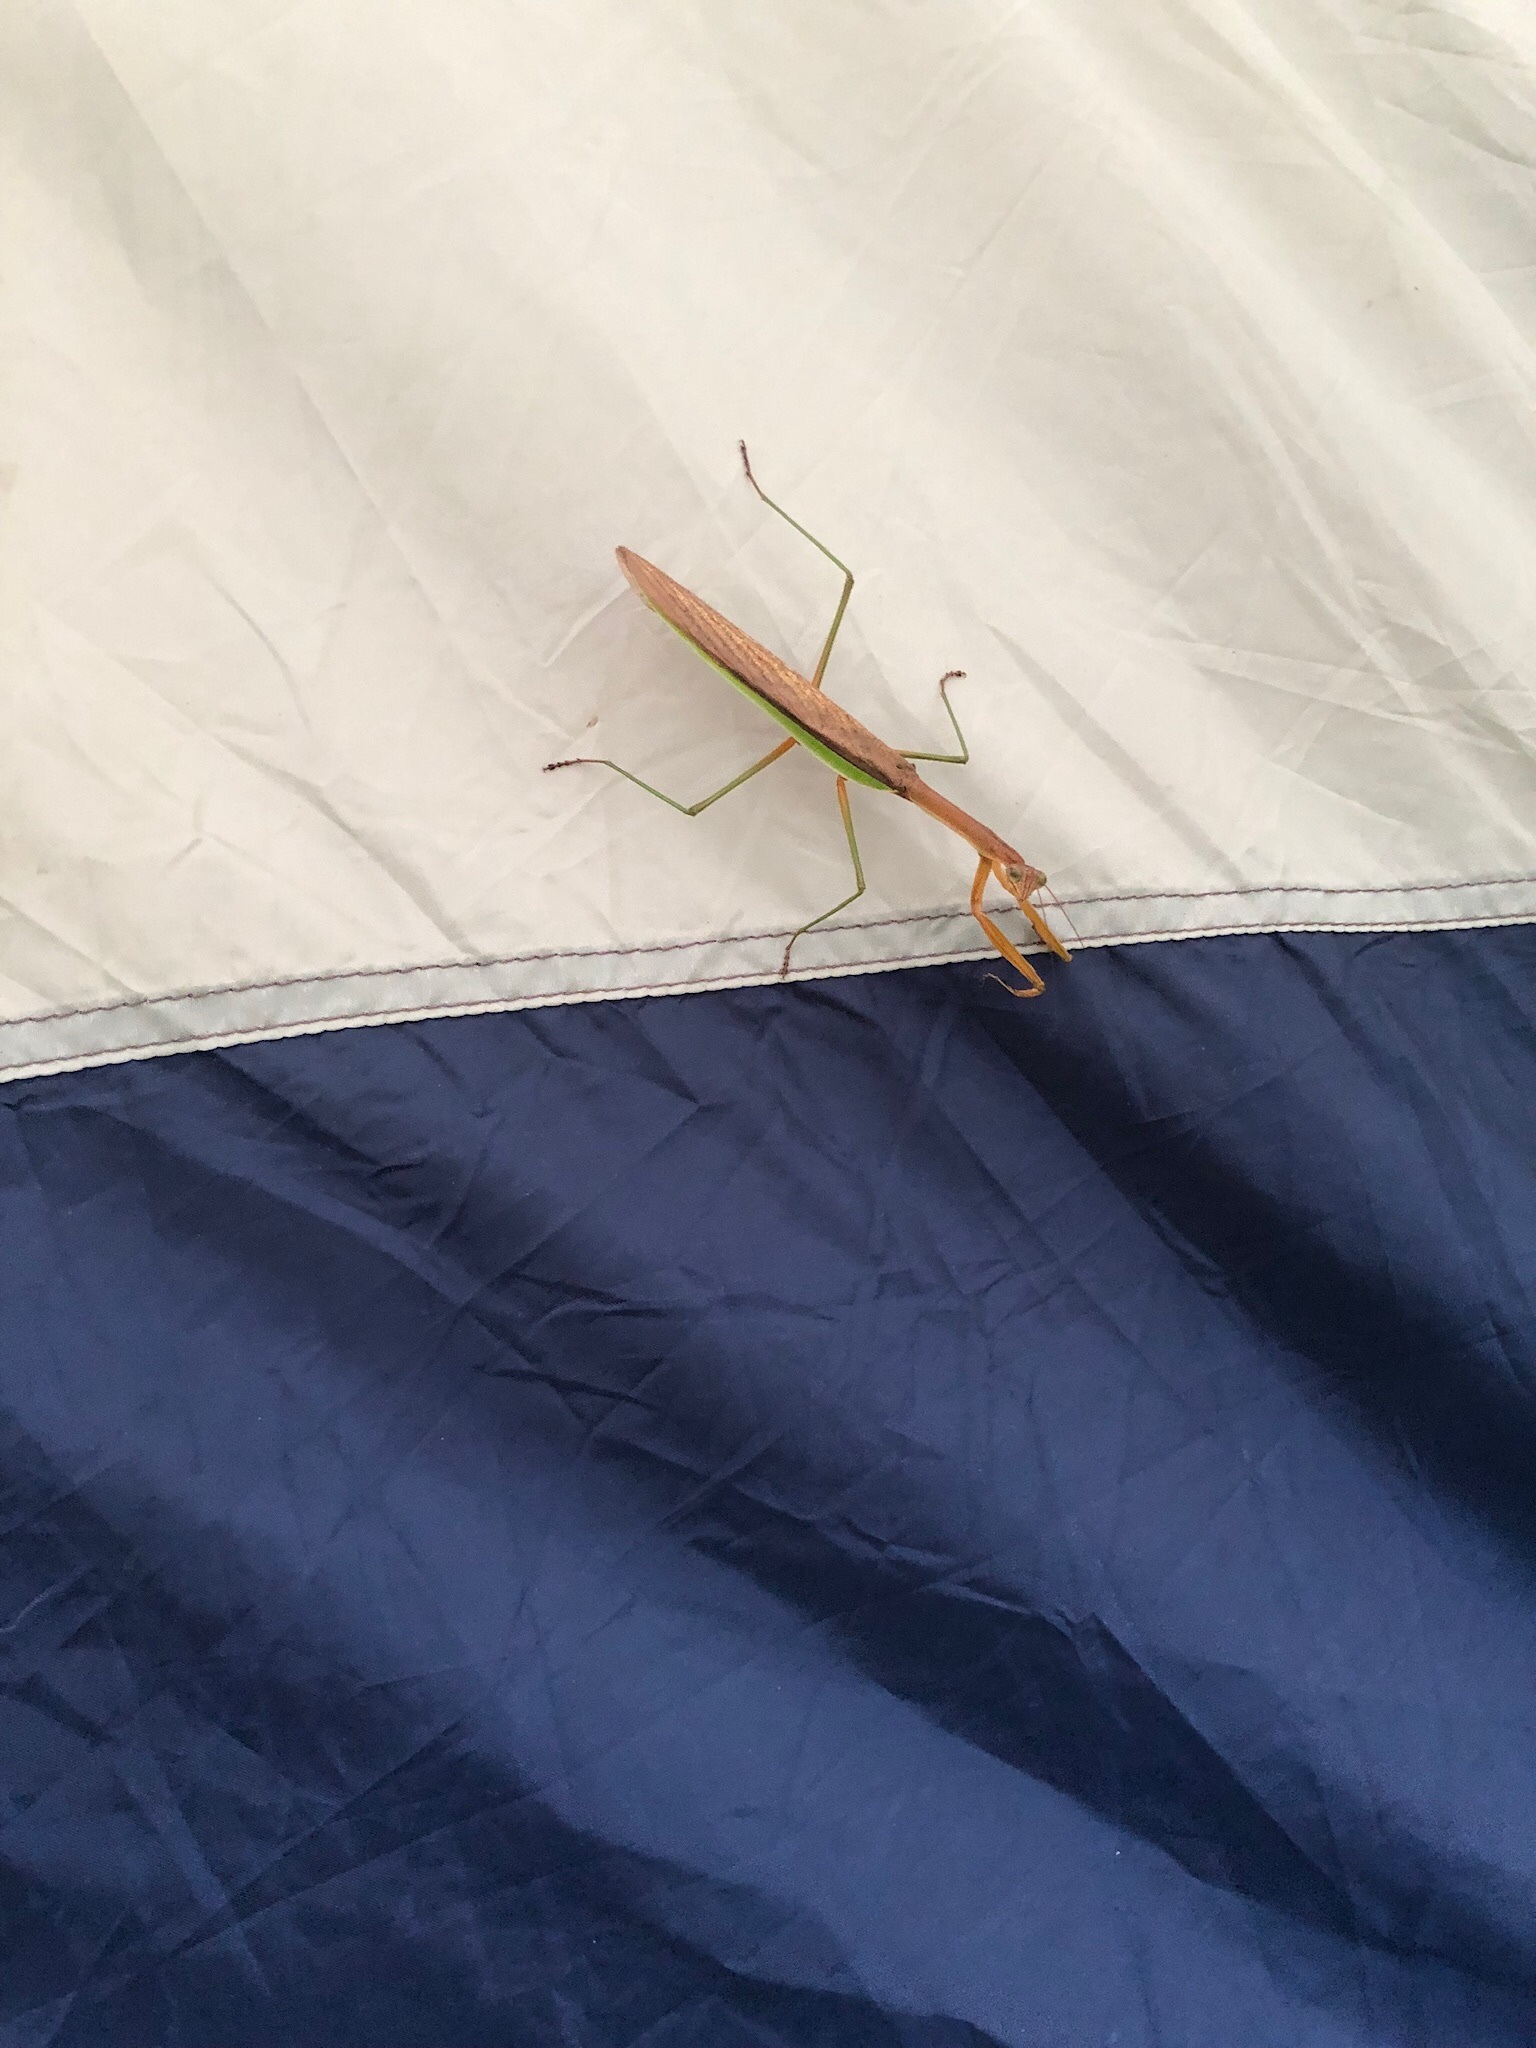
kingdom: Animalia
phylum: Arthropoda
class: Insecta
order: Mantodea
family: Mantidae
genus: Tenodera
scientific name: Tenodera sinensis
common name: Chinese mantis
